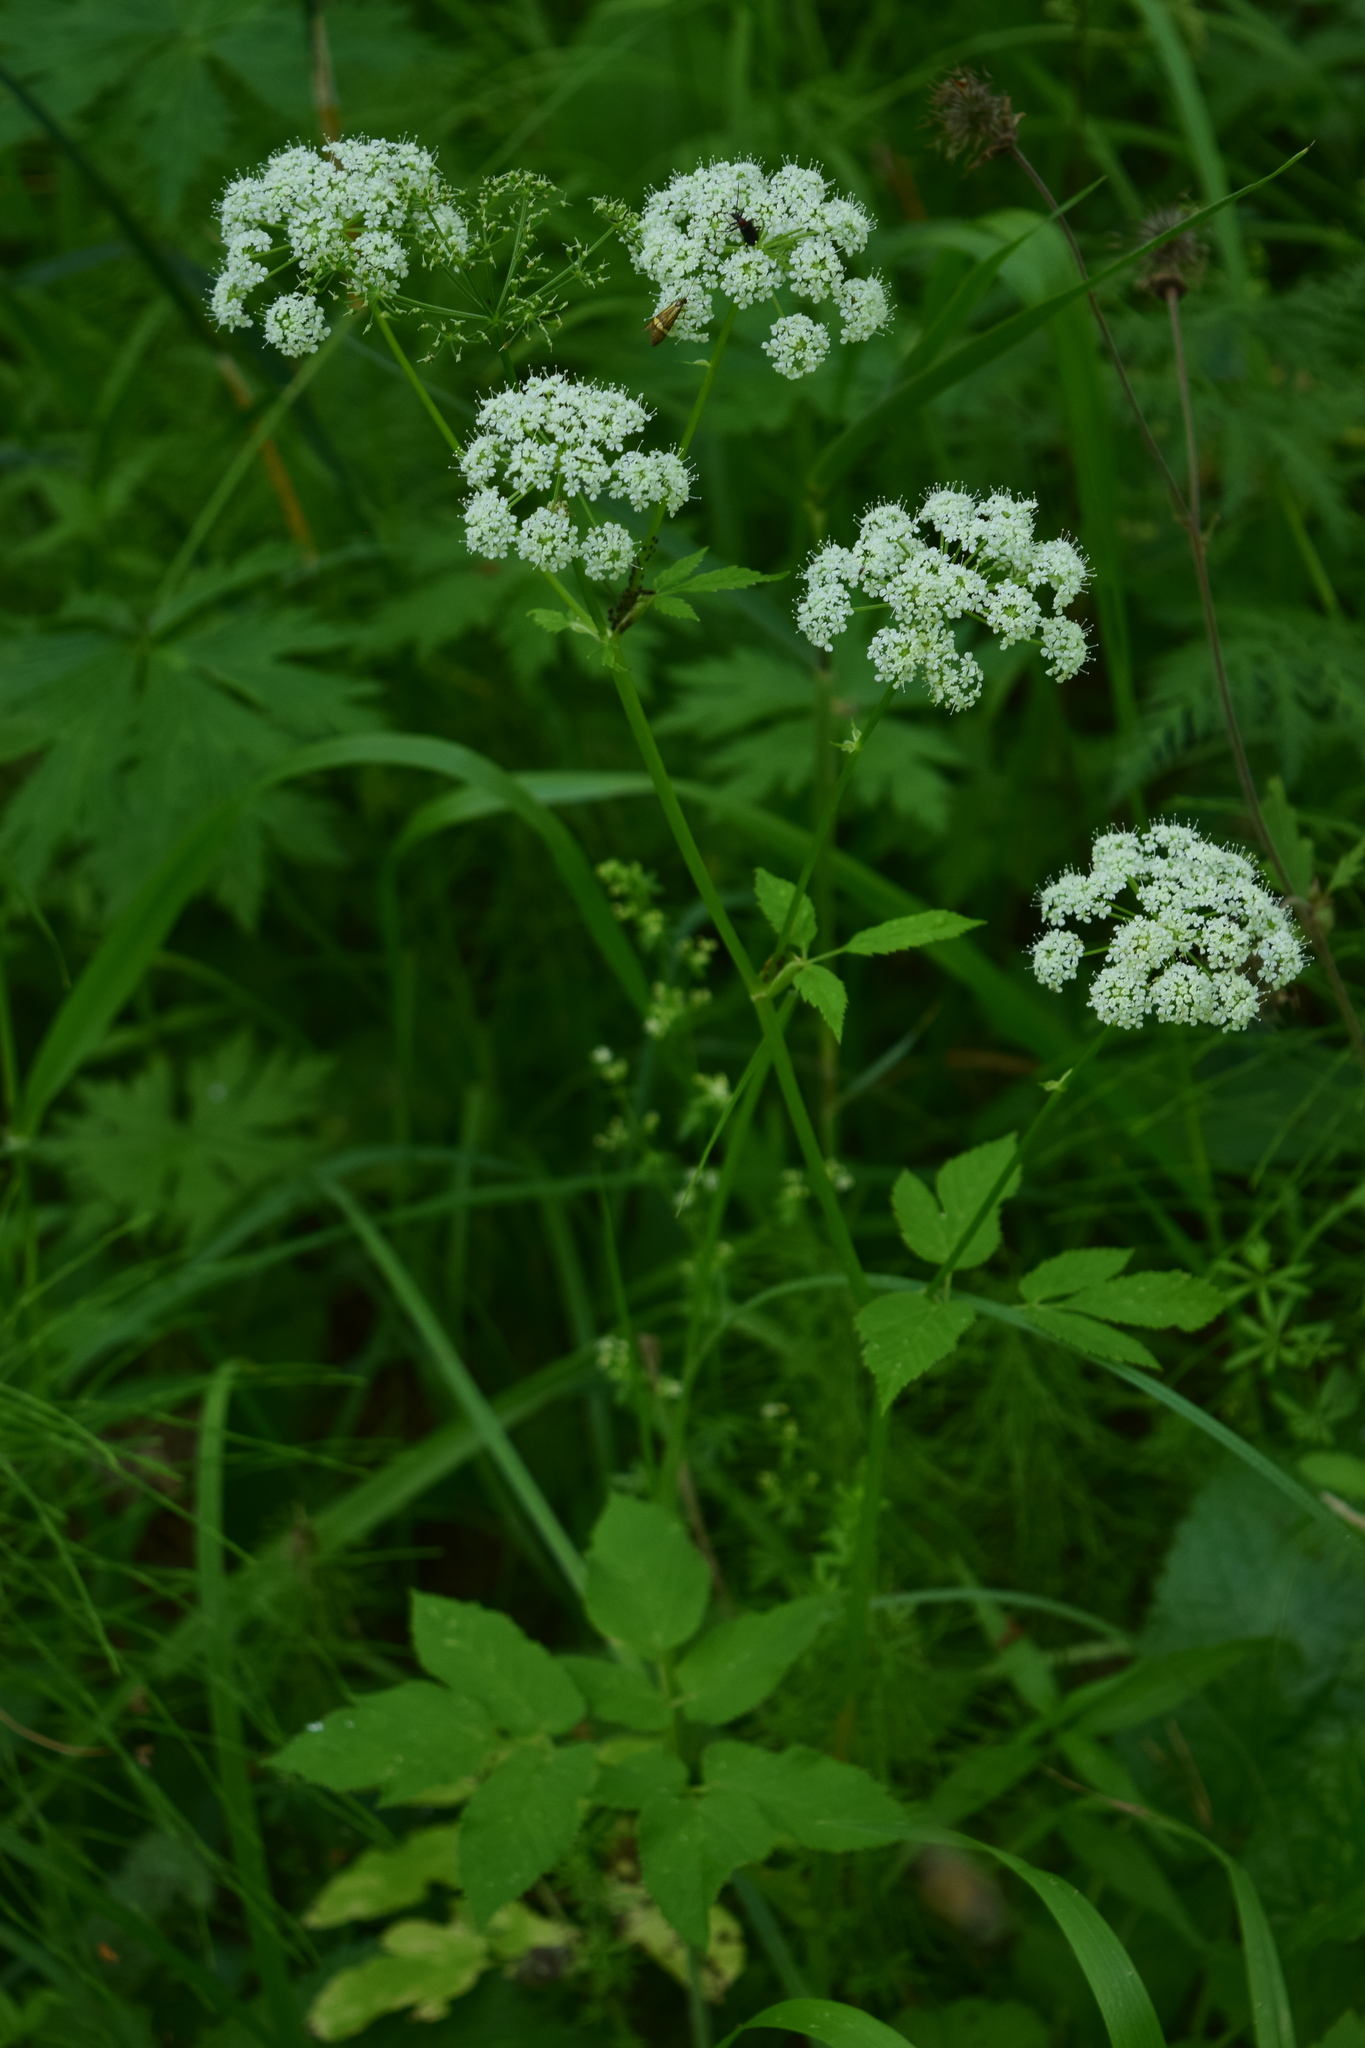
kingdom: Plantae
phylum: Tracheophyta
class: Magnoliopsida
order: Apiales
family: Apiaceae
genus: Aegopodium
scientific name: Aegopodium podagraria
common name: Ground-elder
